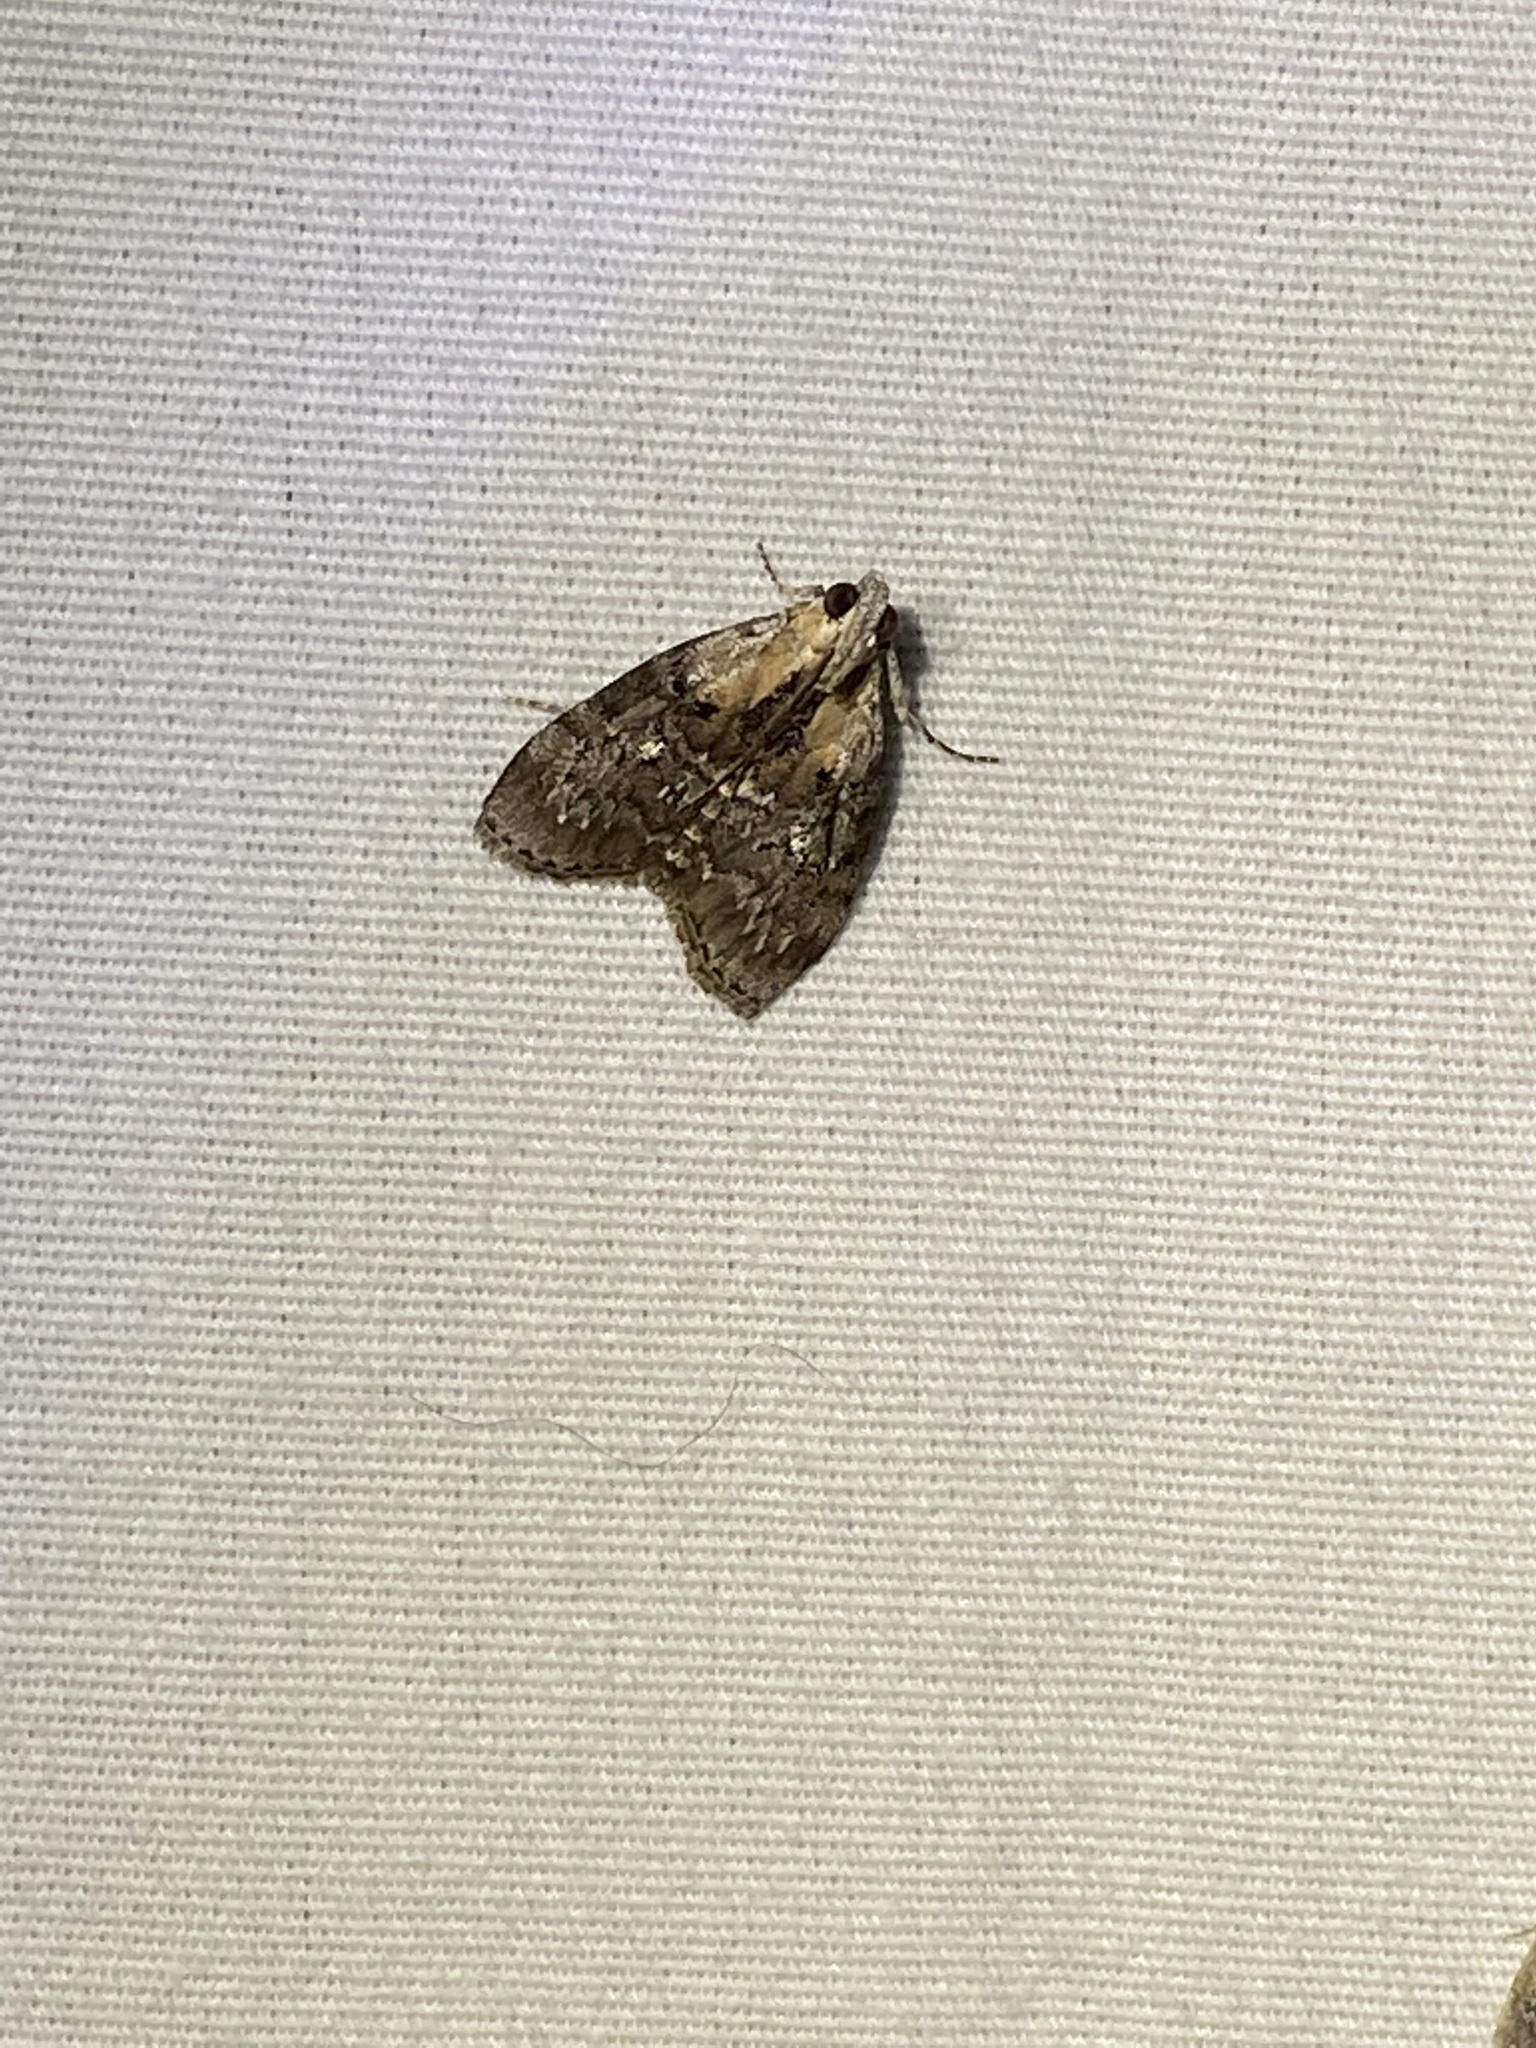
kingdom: Animalia
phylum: Arthropoda
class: Insecta
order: Lepidoptera
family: Pyralidae
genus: Pococera
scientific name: Pococera expandens
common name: Striped oak webworm moth
